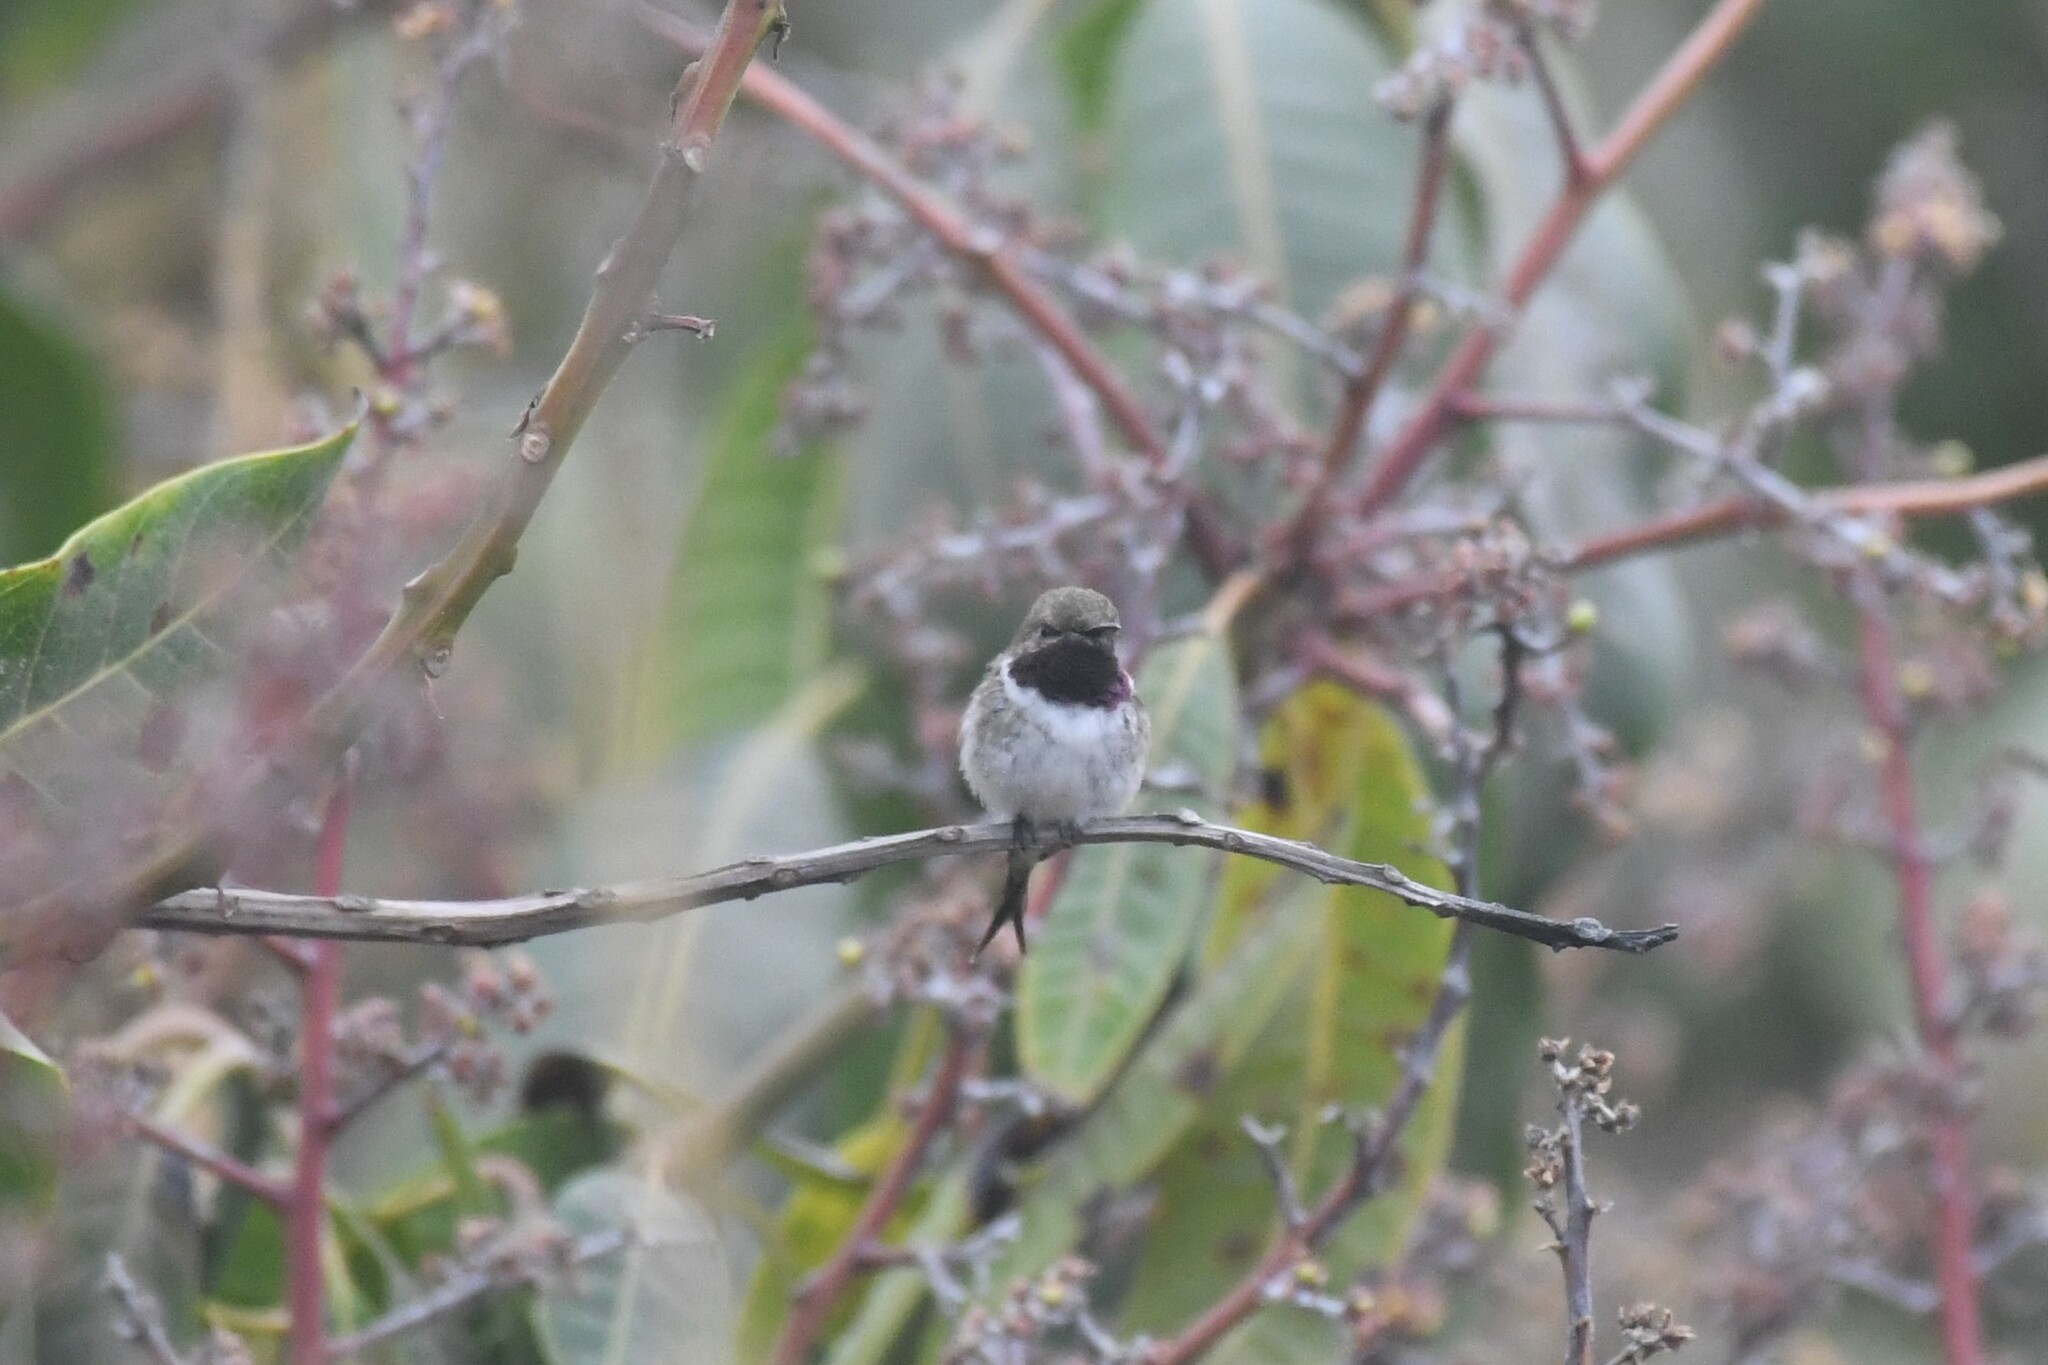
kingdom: Animalia
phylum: Chordata
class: Aves
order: Apodiformes
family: Trochilidae
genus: Eulidia
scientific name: Eulidia yarrellii
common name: Chilean woodstar
